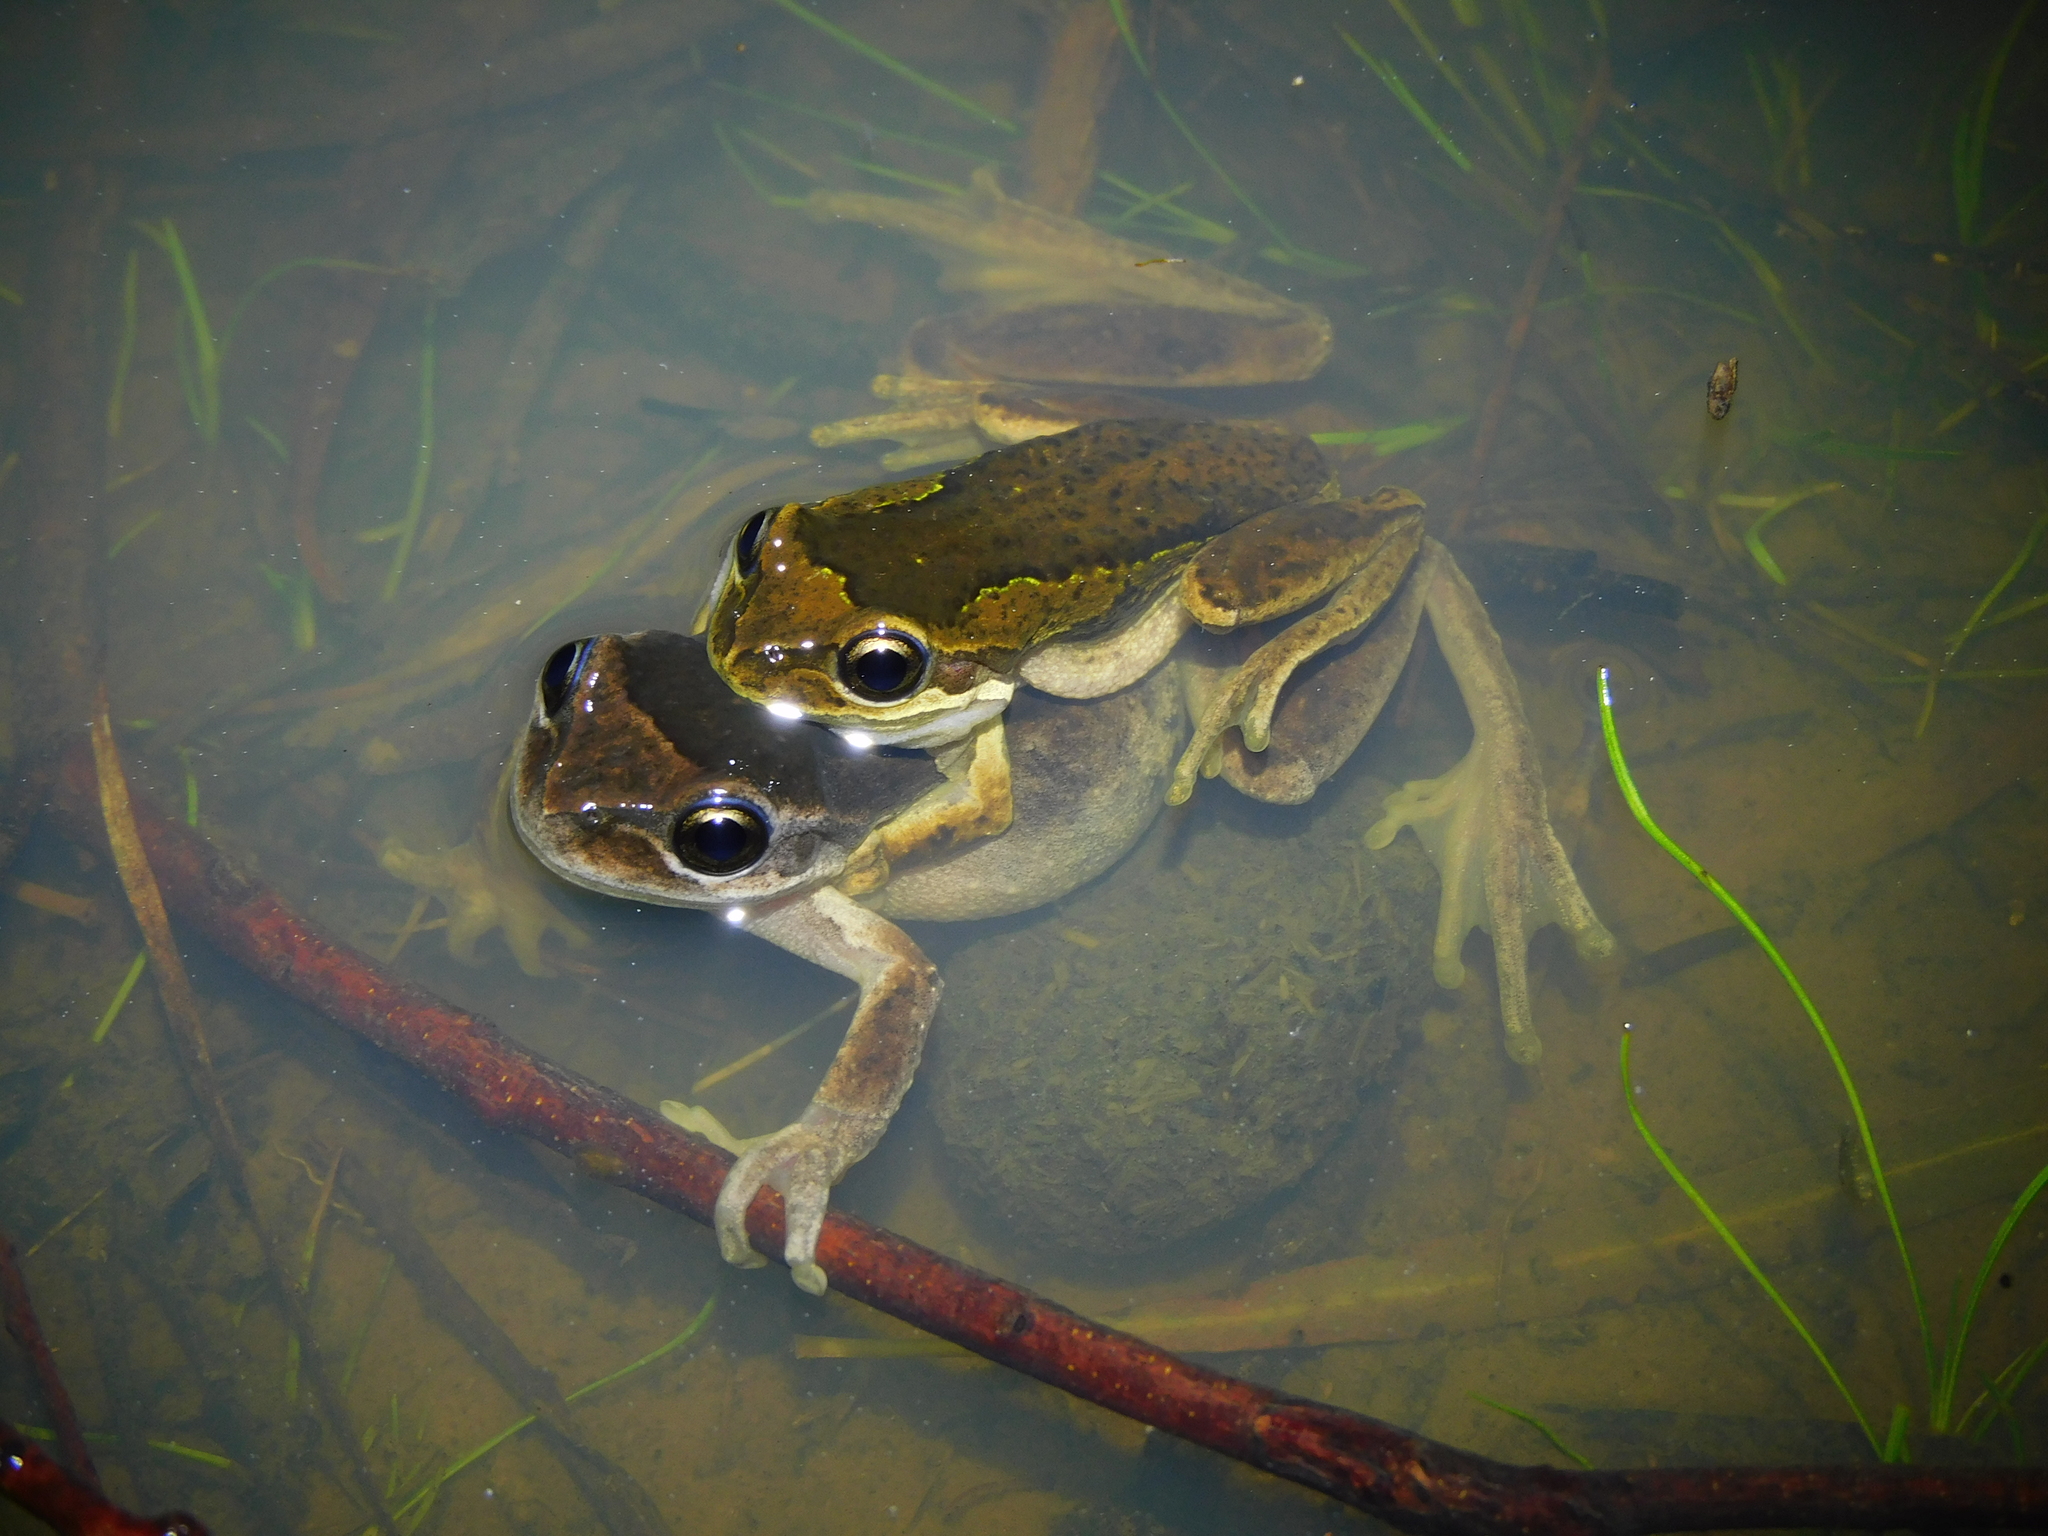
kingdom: Animalia
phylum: Chordata
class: Amphibia
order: Anura
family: Pelodryadidae
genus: Litoria
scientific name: Litoria ewingii
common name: Southern brown tree frog
